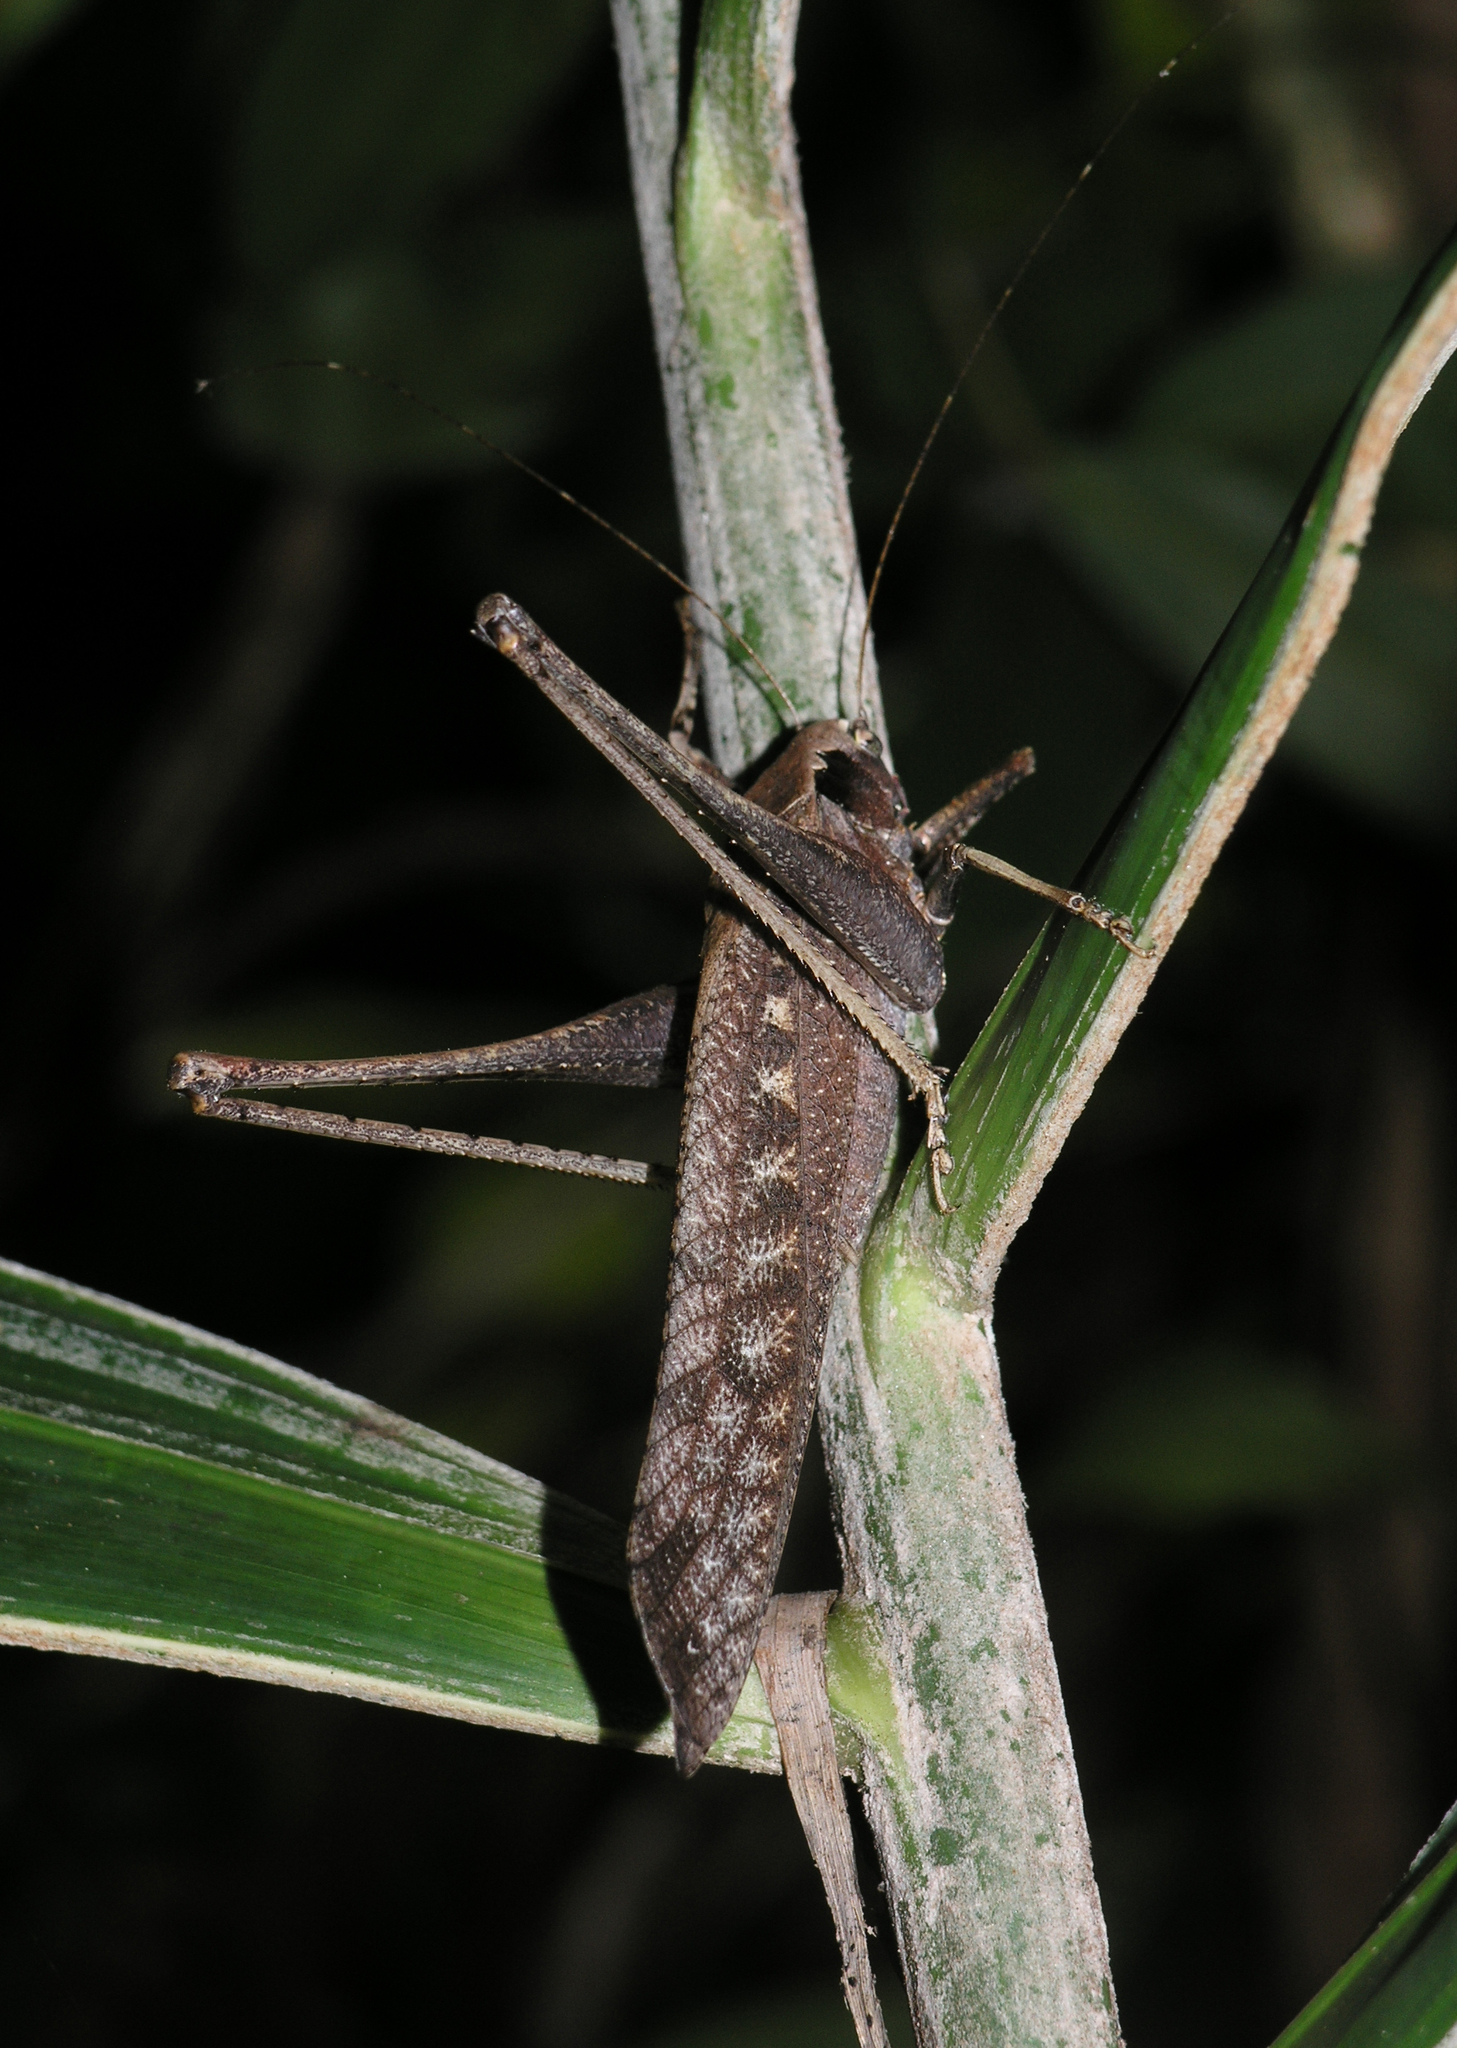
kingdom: Animalia
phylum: Arthropoda
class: Insecta
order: Orthoptera
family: Tettigoniidae
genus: Mecopoda
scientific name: Mecopoda elongata
